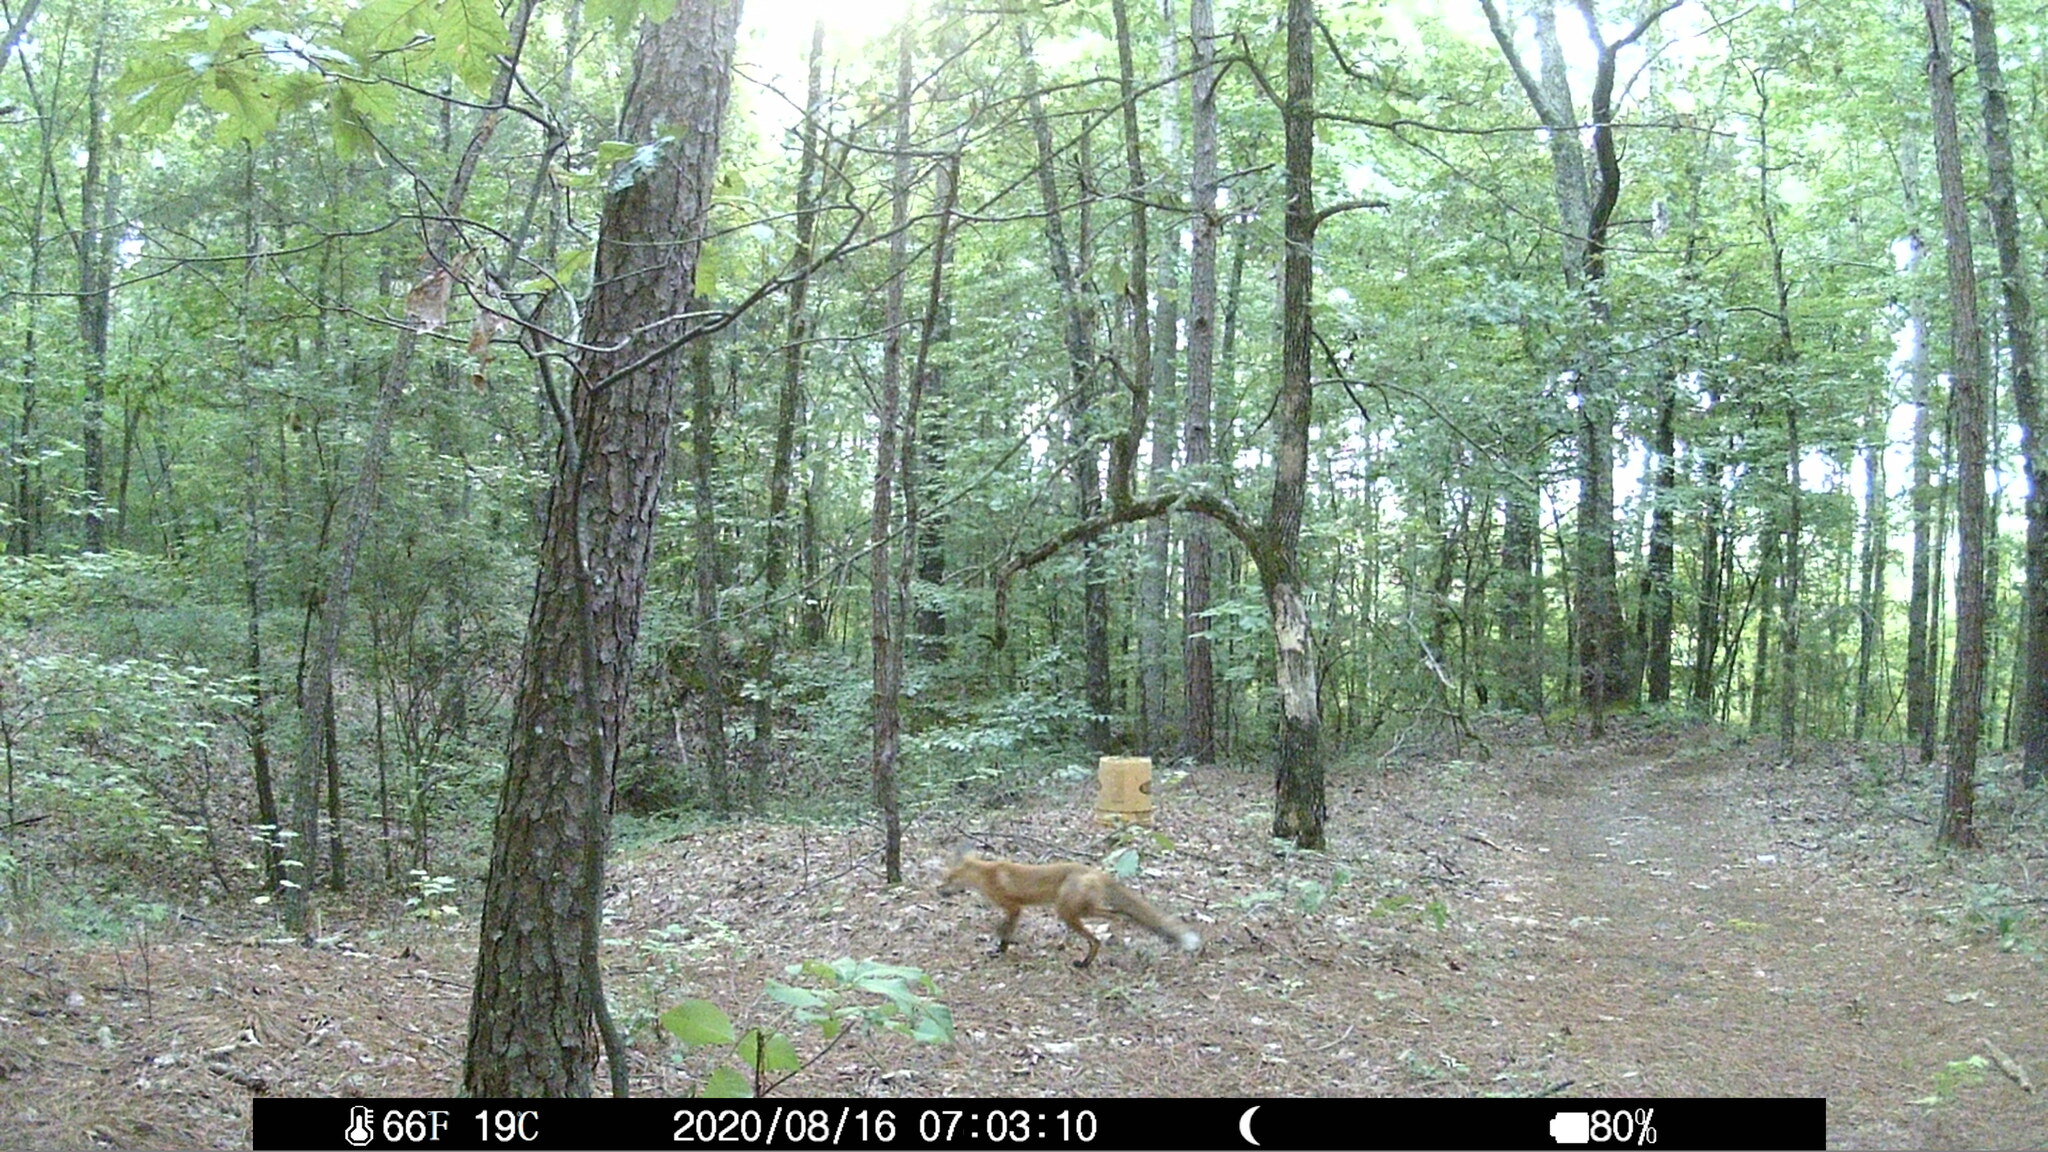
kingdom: Animalia
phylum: Chordata
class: Mammalia
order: Carnivora
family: Canidae
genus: Vulpes
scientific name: Vulpes vulpes
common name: Red fox
